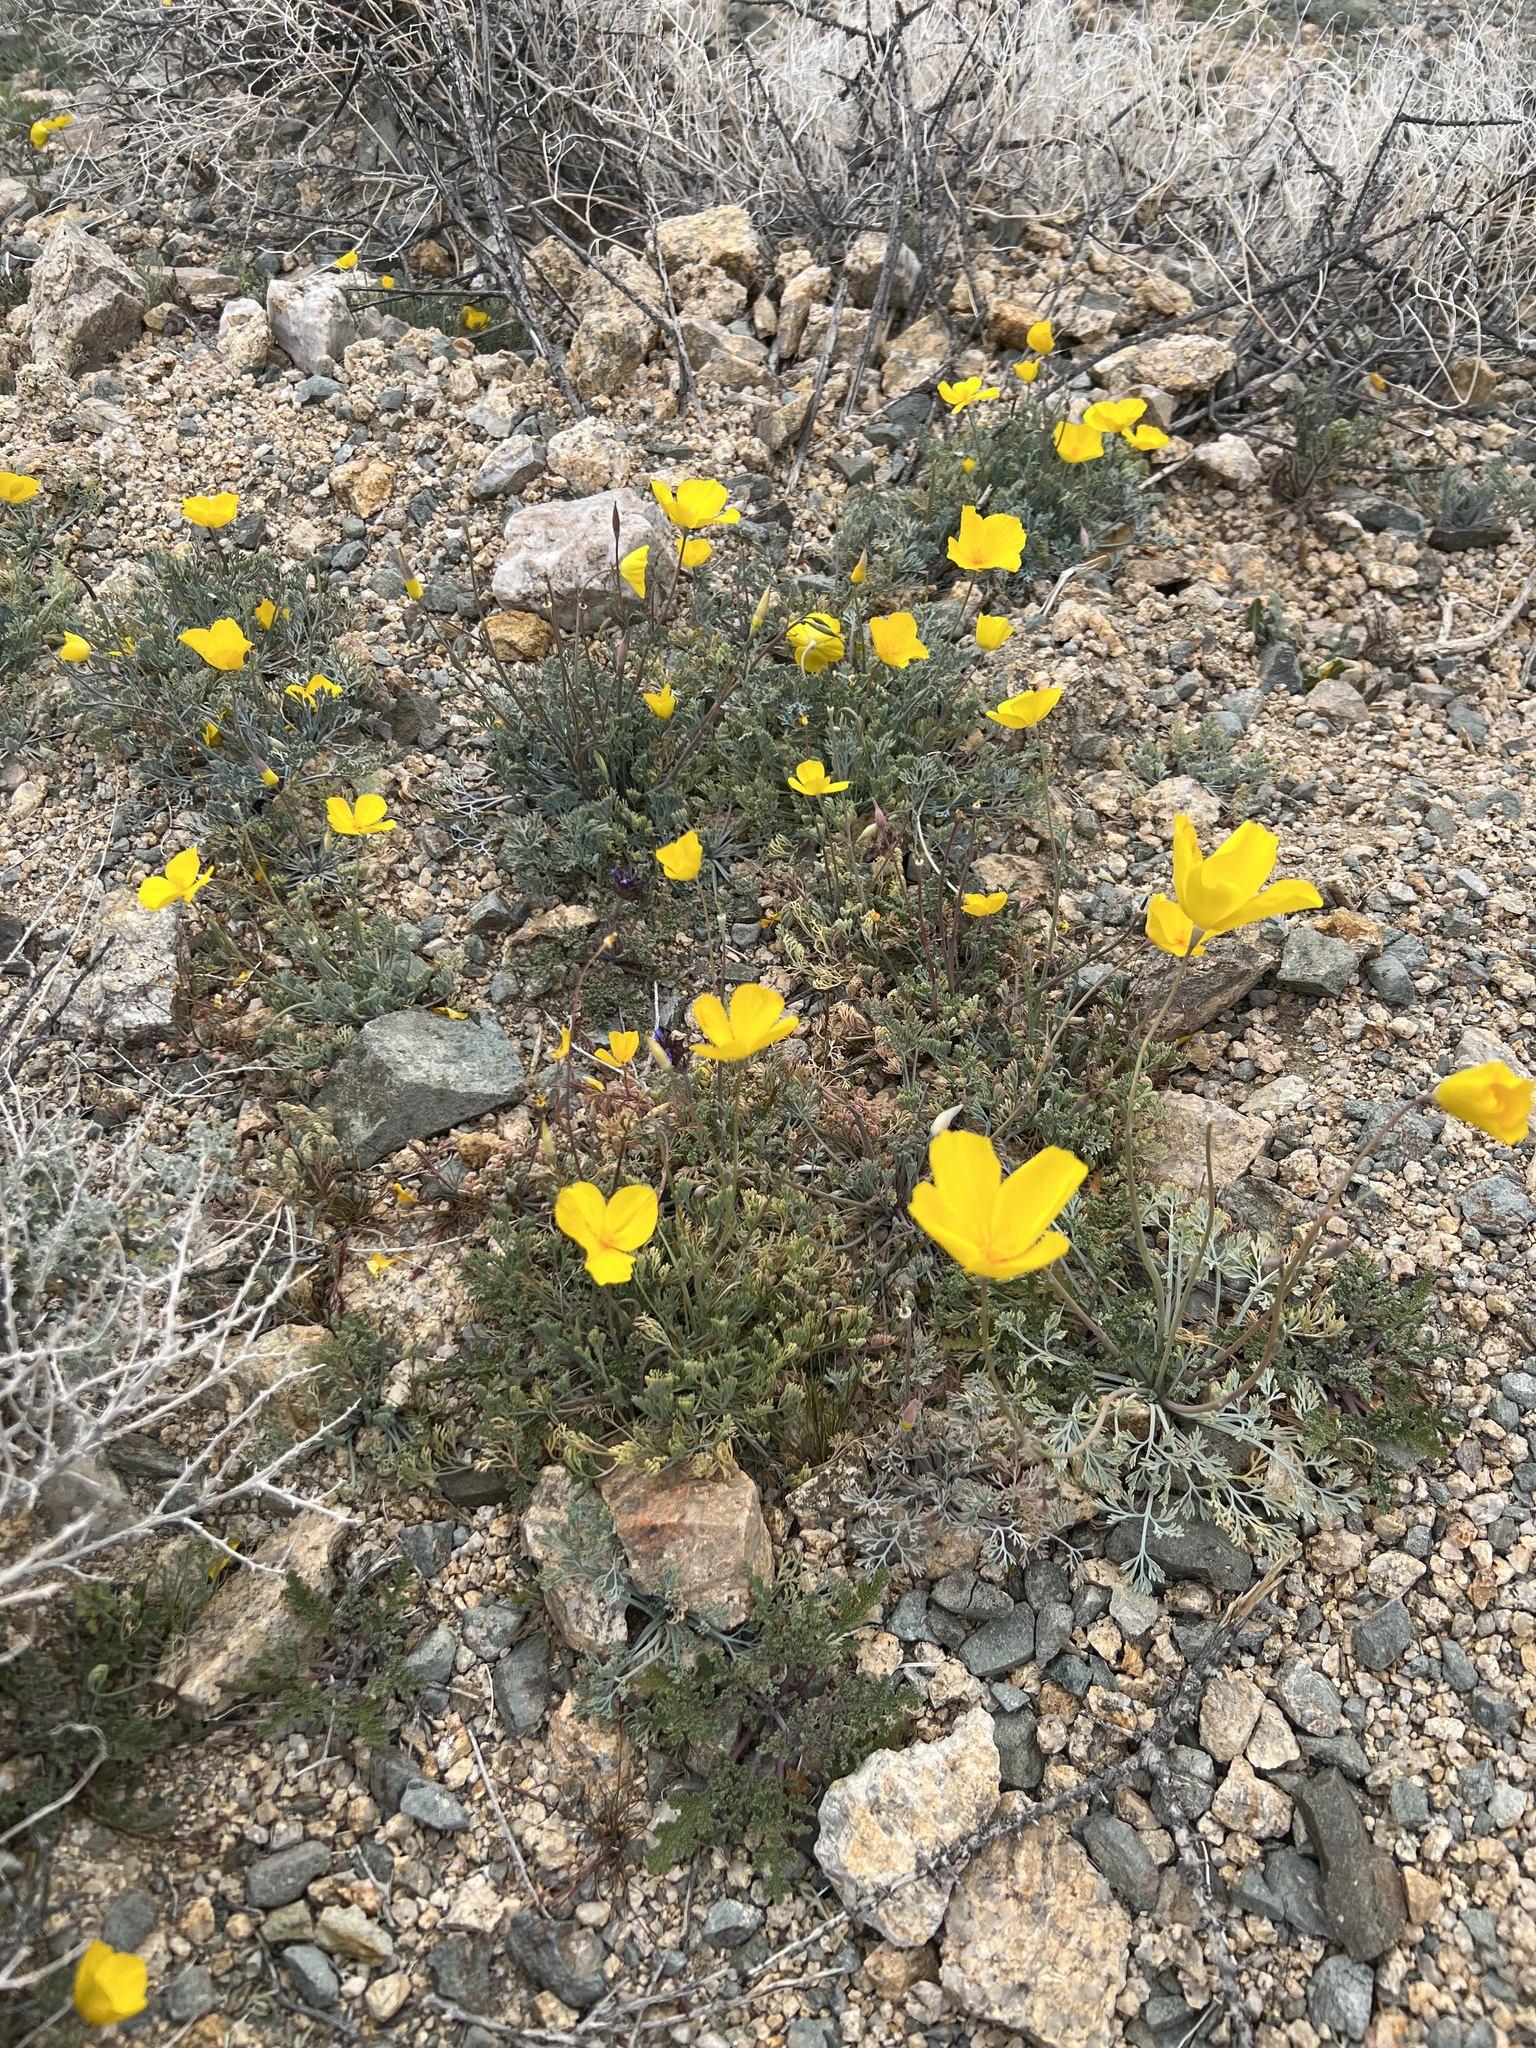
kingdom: Plantae
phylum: Tracheophyta
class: Magnoliopsida
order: Ranunculales
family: Papaveraceae
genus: Eschscholzia
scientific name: Eschscholzia papastillii
